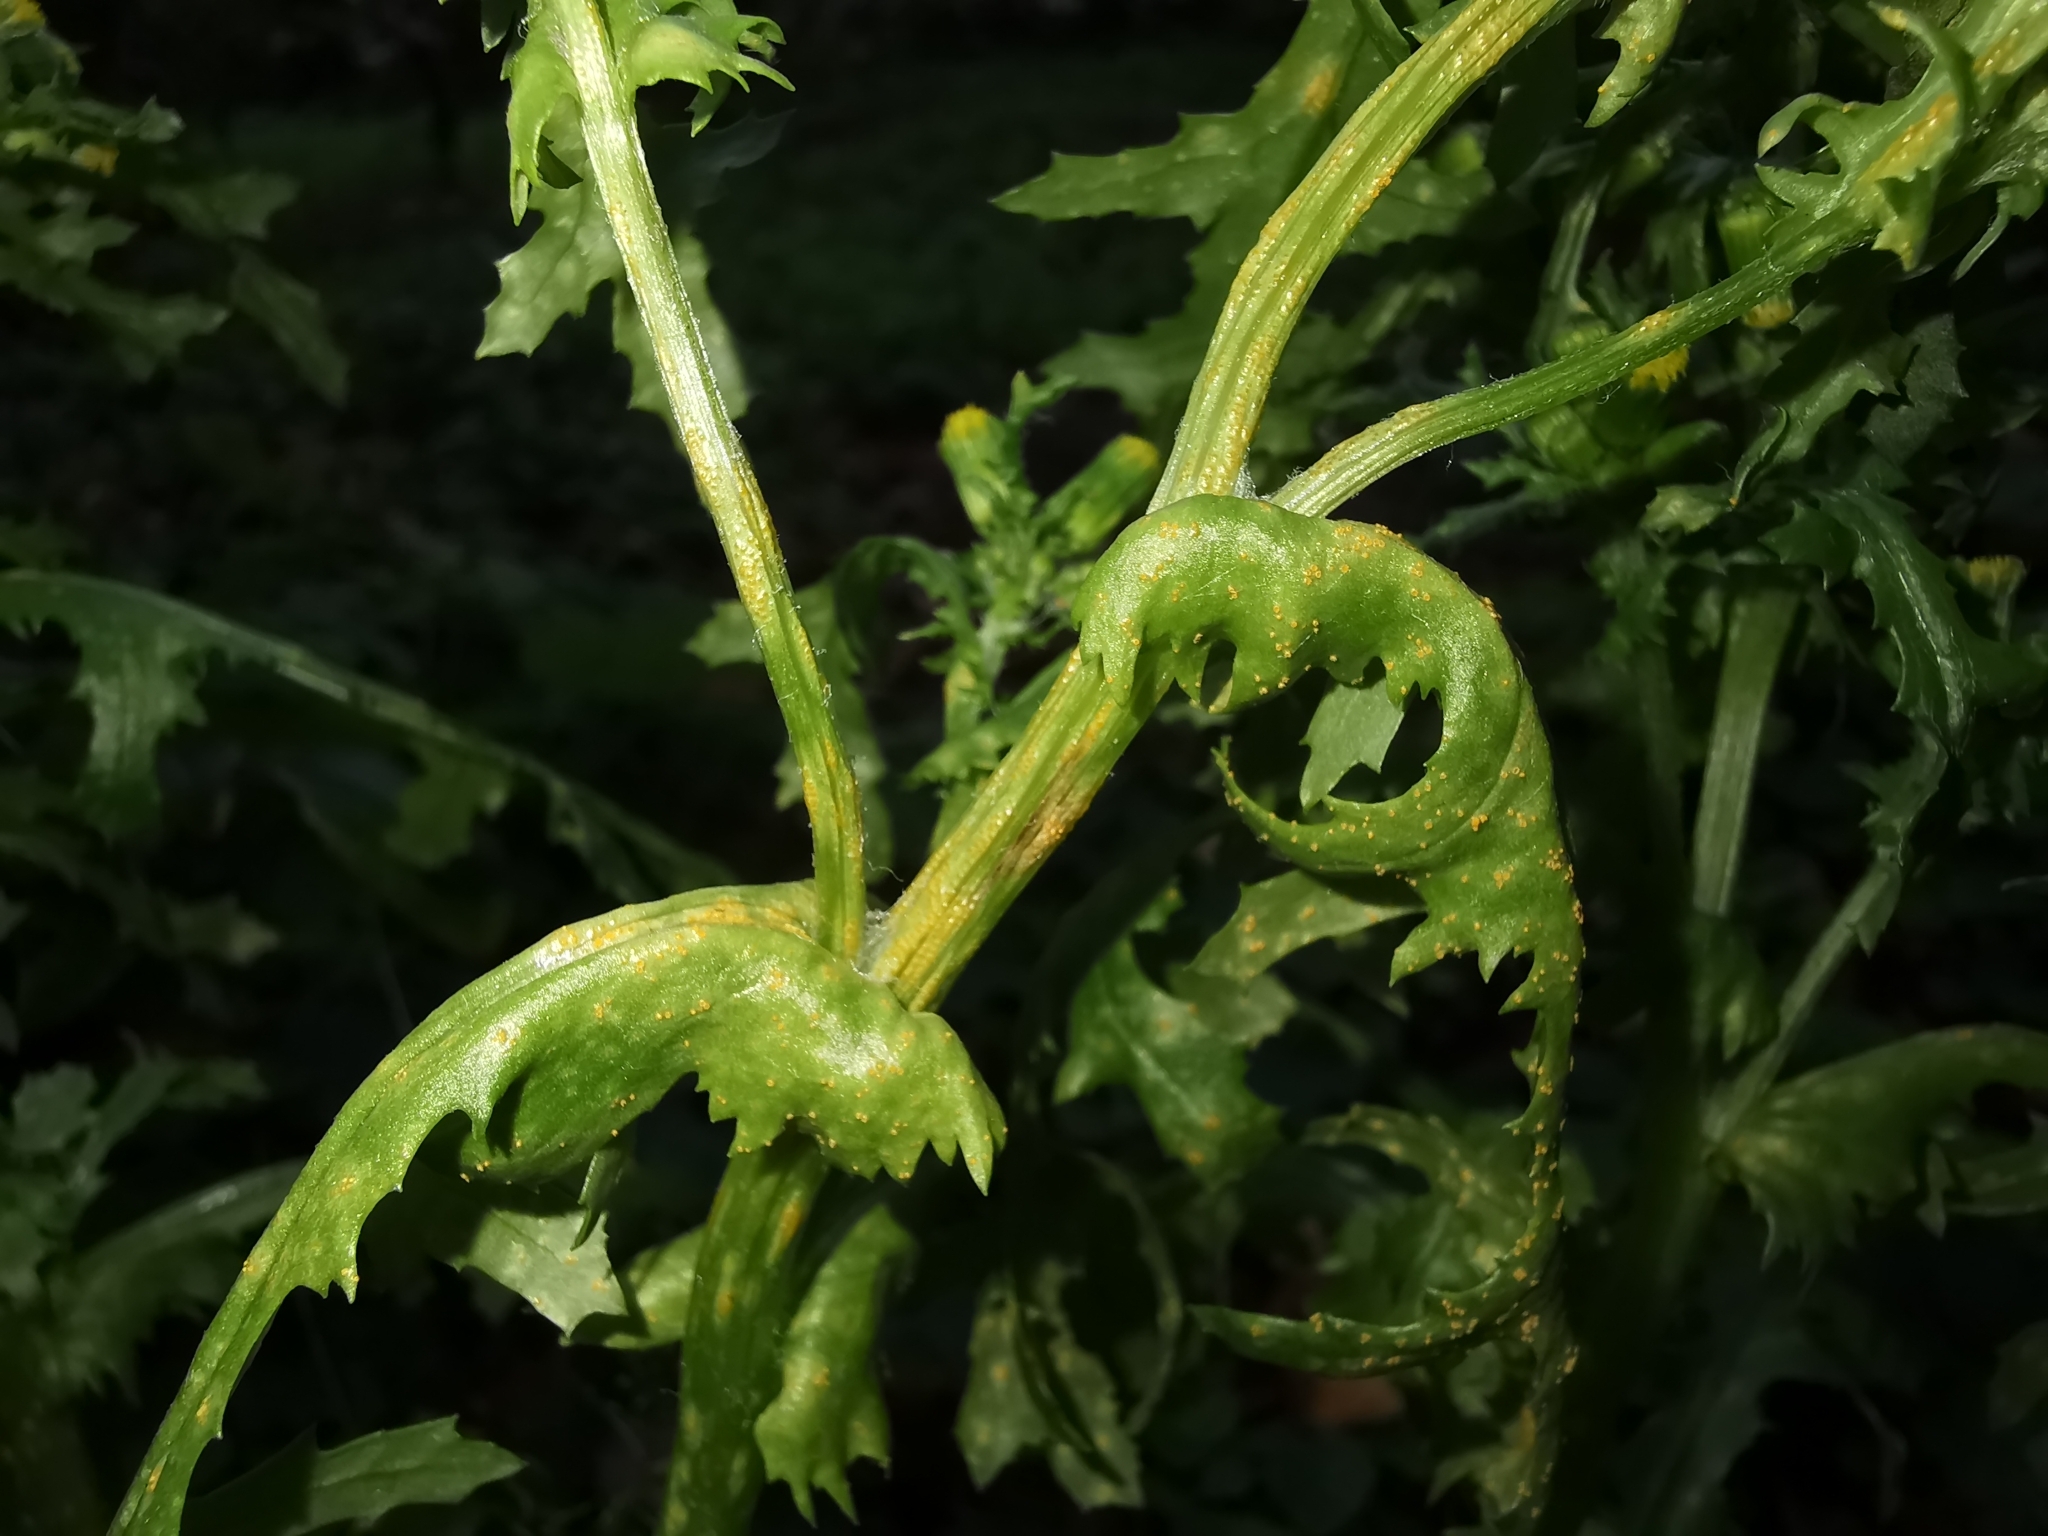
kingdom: Fungi
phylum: Basidiomycota
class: Pucciniomycetes
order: Pucciniales
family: Pucciniaceae
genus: Puccinia
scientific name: Puccinia lagenophorae
